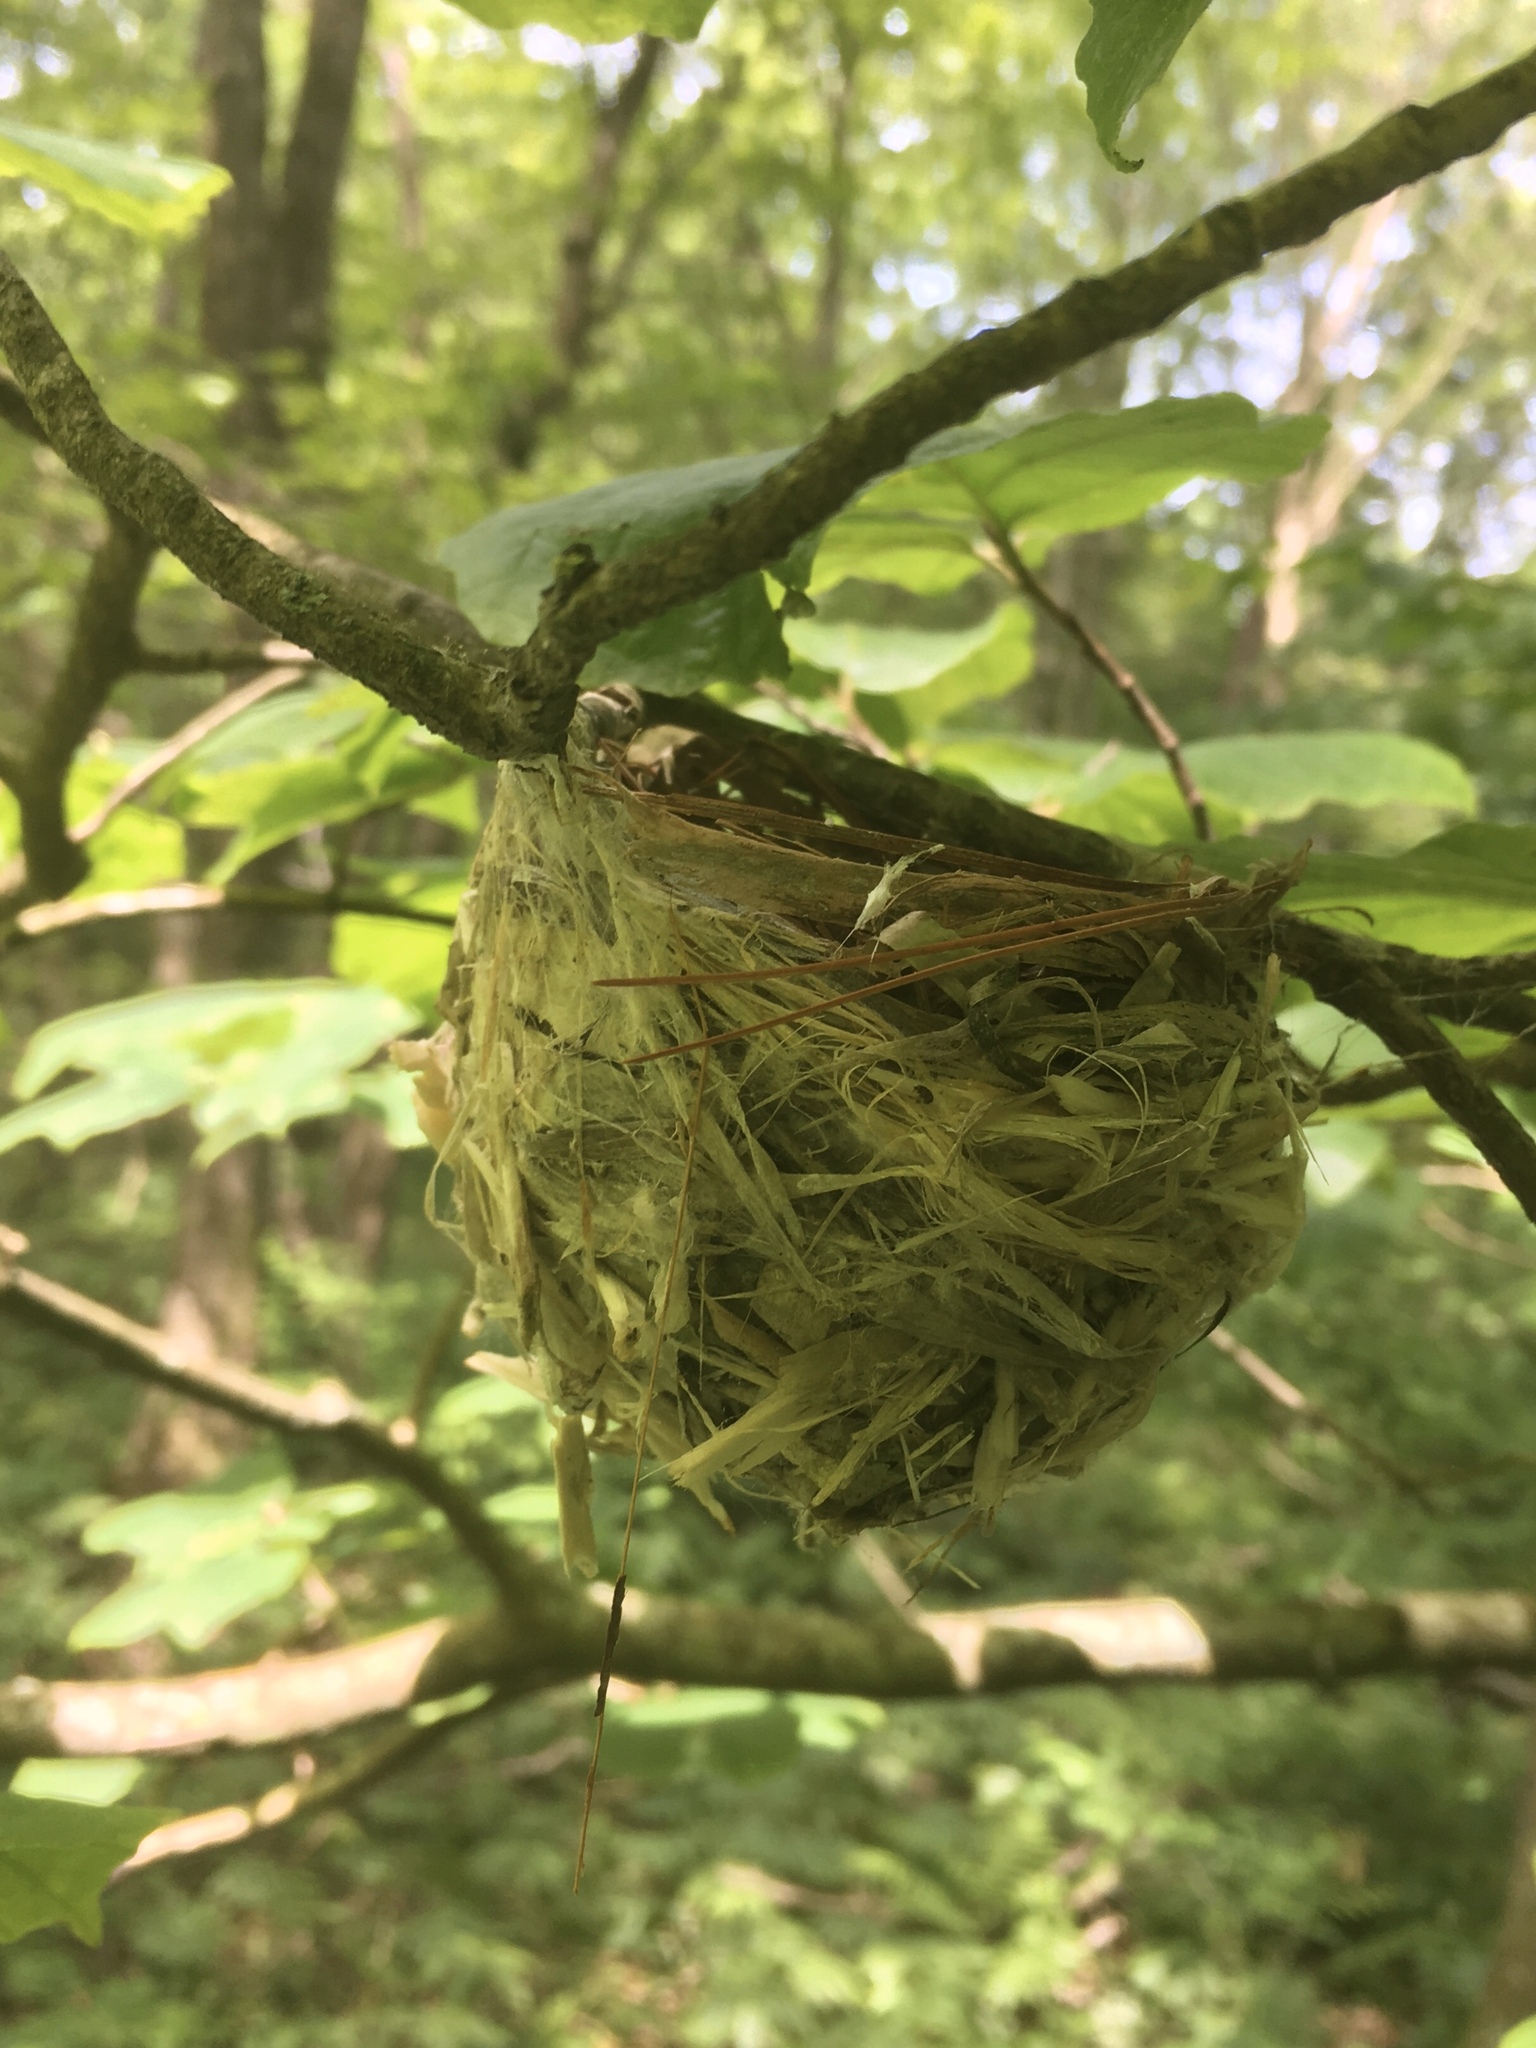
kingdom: Animalia
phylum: Chordata
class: Aves
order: Passeriformes
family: Vireonidae
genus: Vireo
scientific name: Vireo olivaceus
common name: Red-eyed vireo
